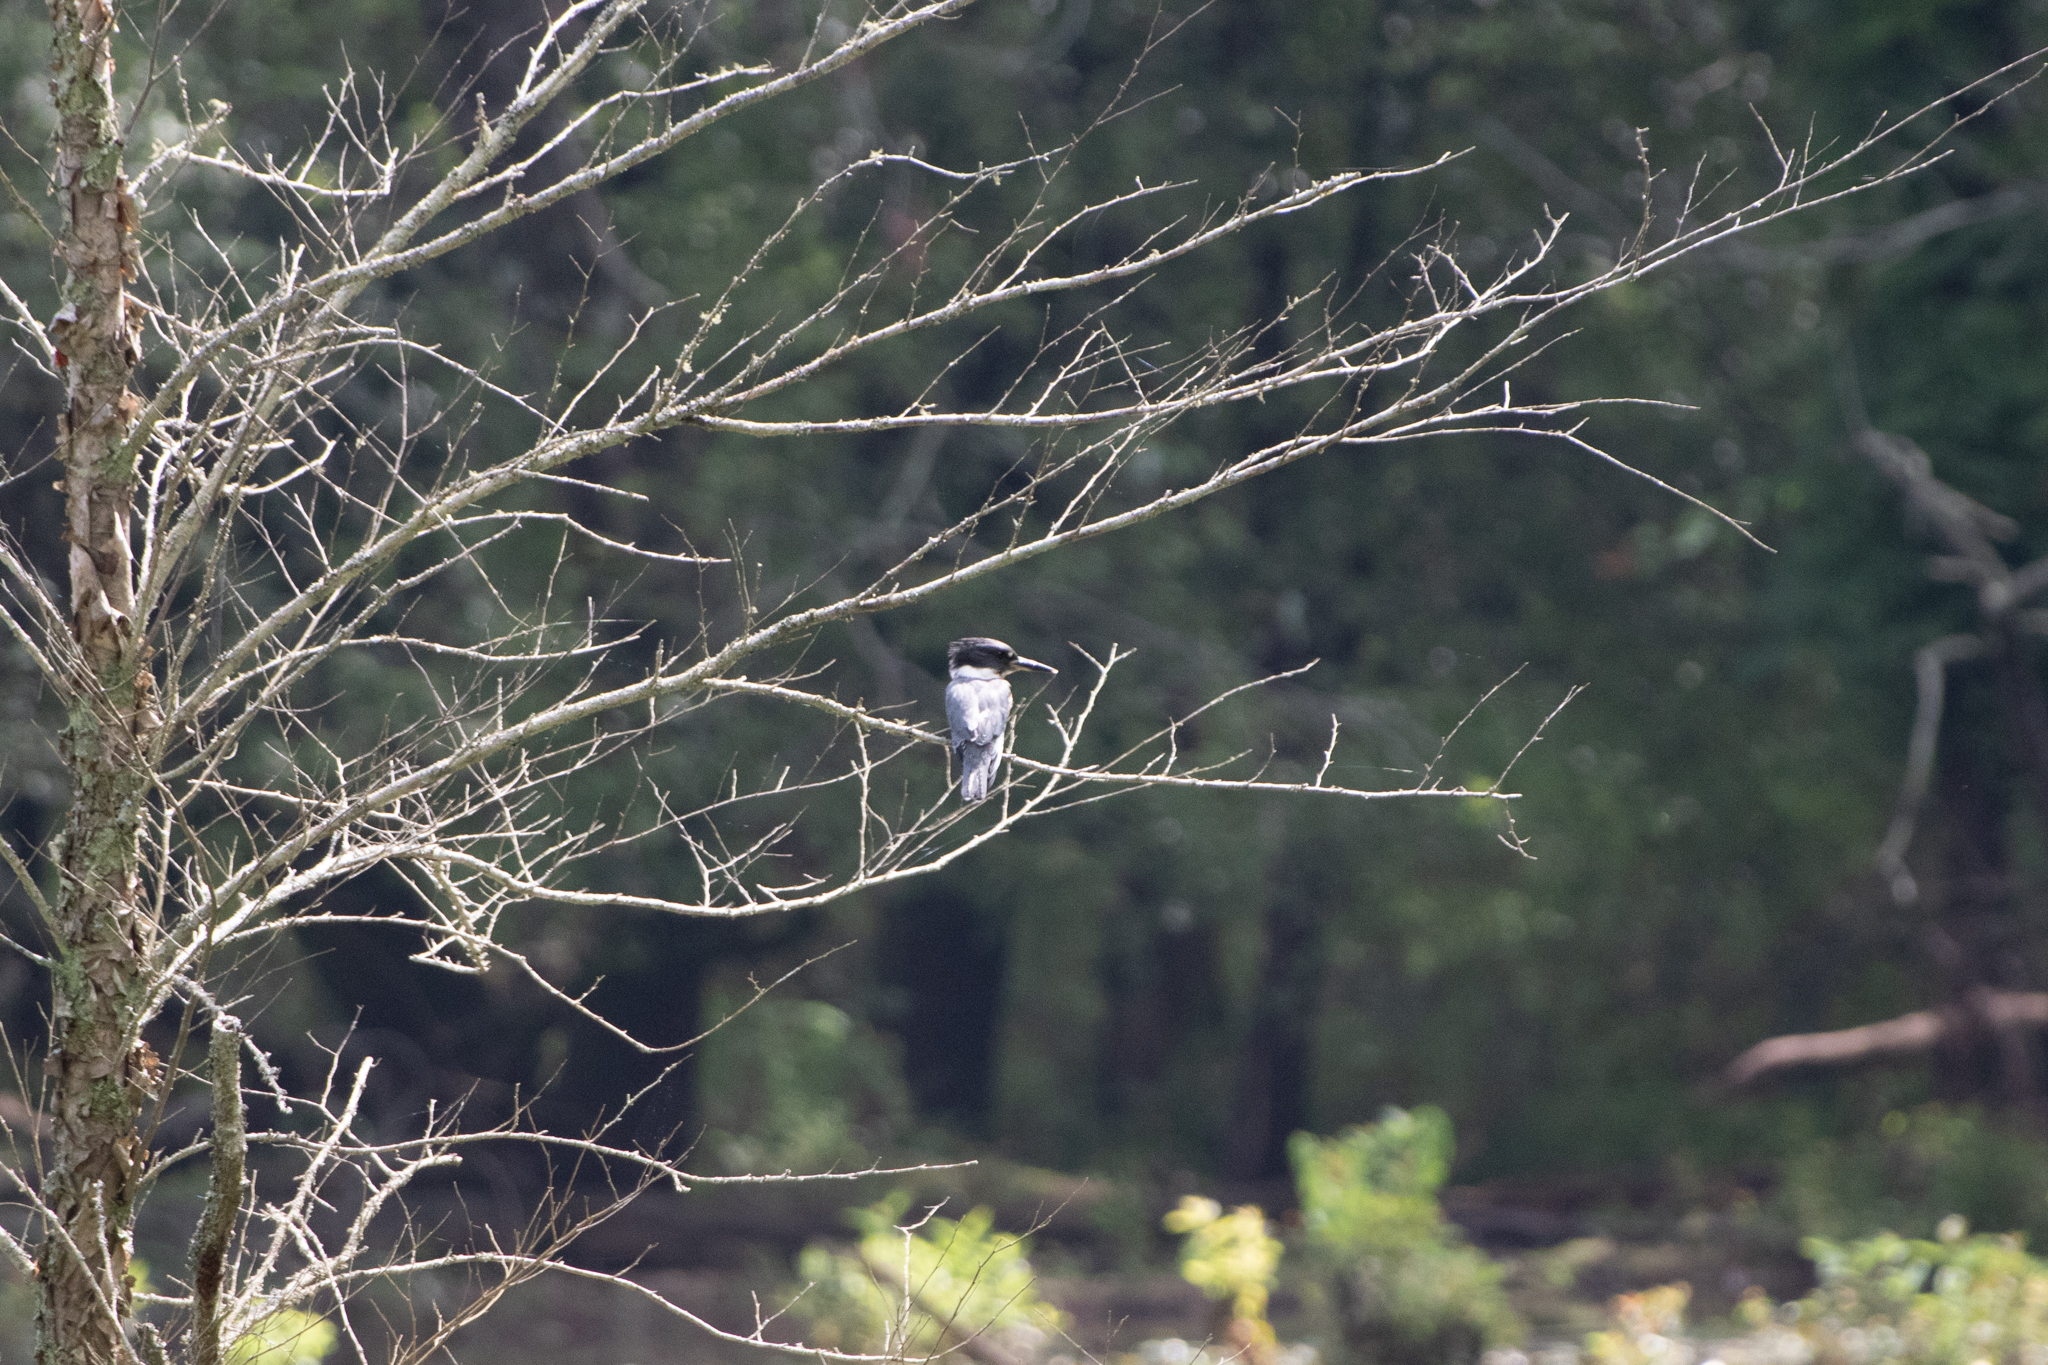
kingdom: Animalia
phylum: Chordata
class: Aves
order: Coraciiformes
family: Alcedinidae
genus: Megaceryle
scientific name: Megaceryle alcyon
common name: Belted kingfisher
